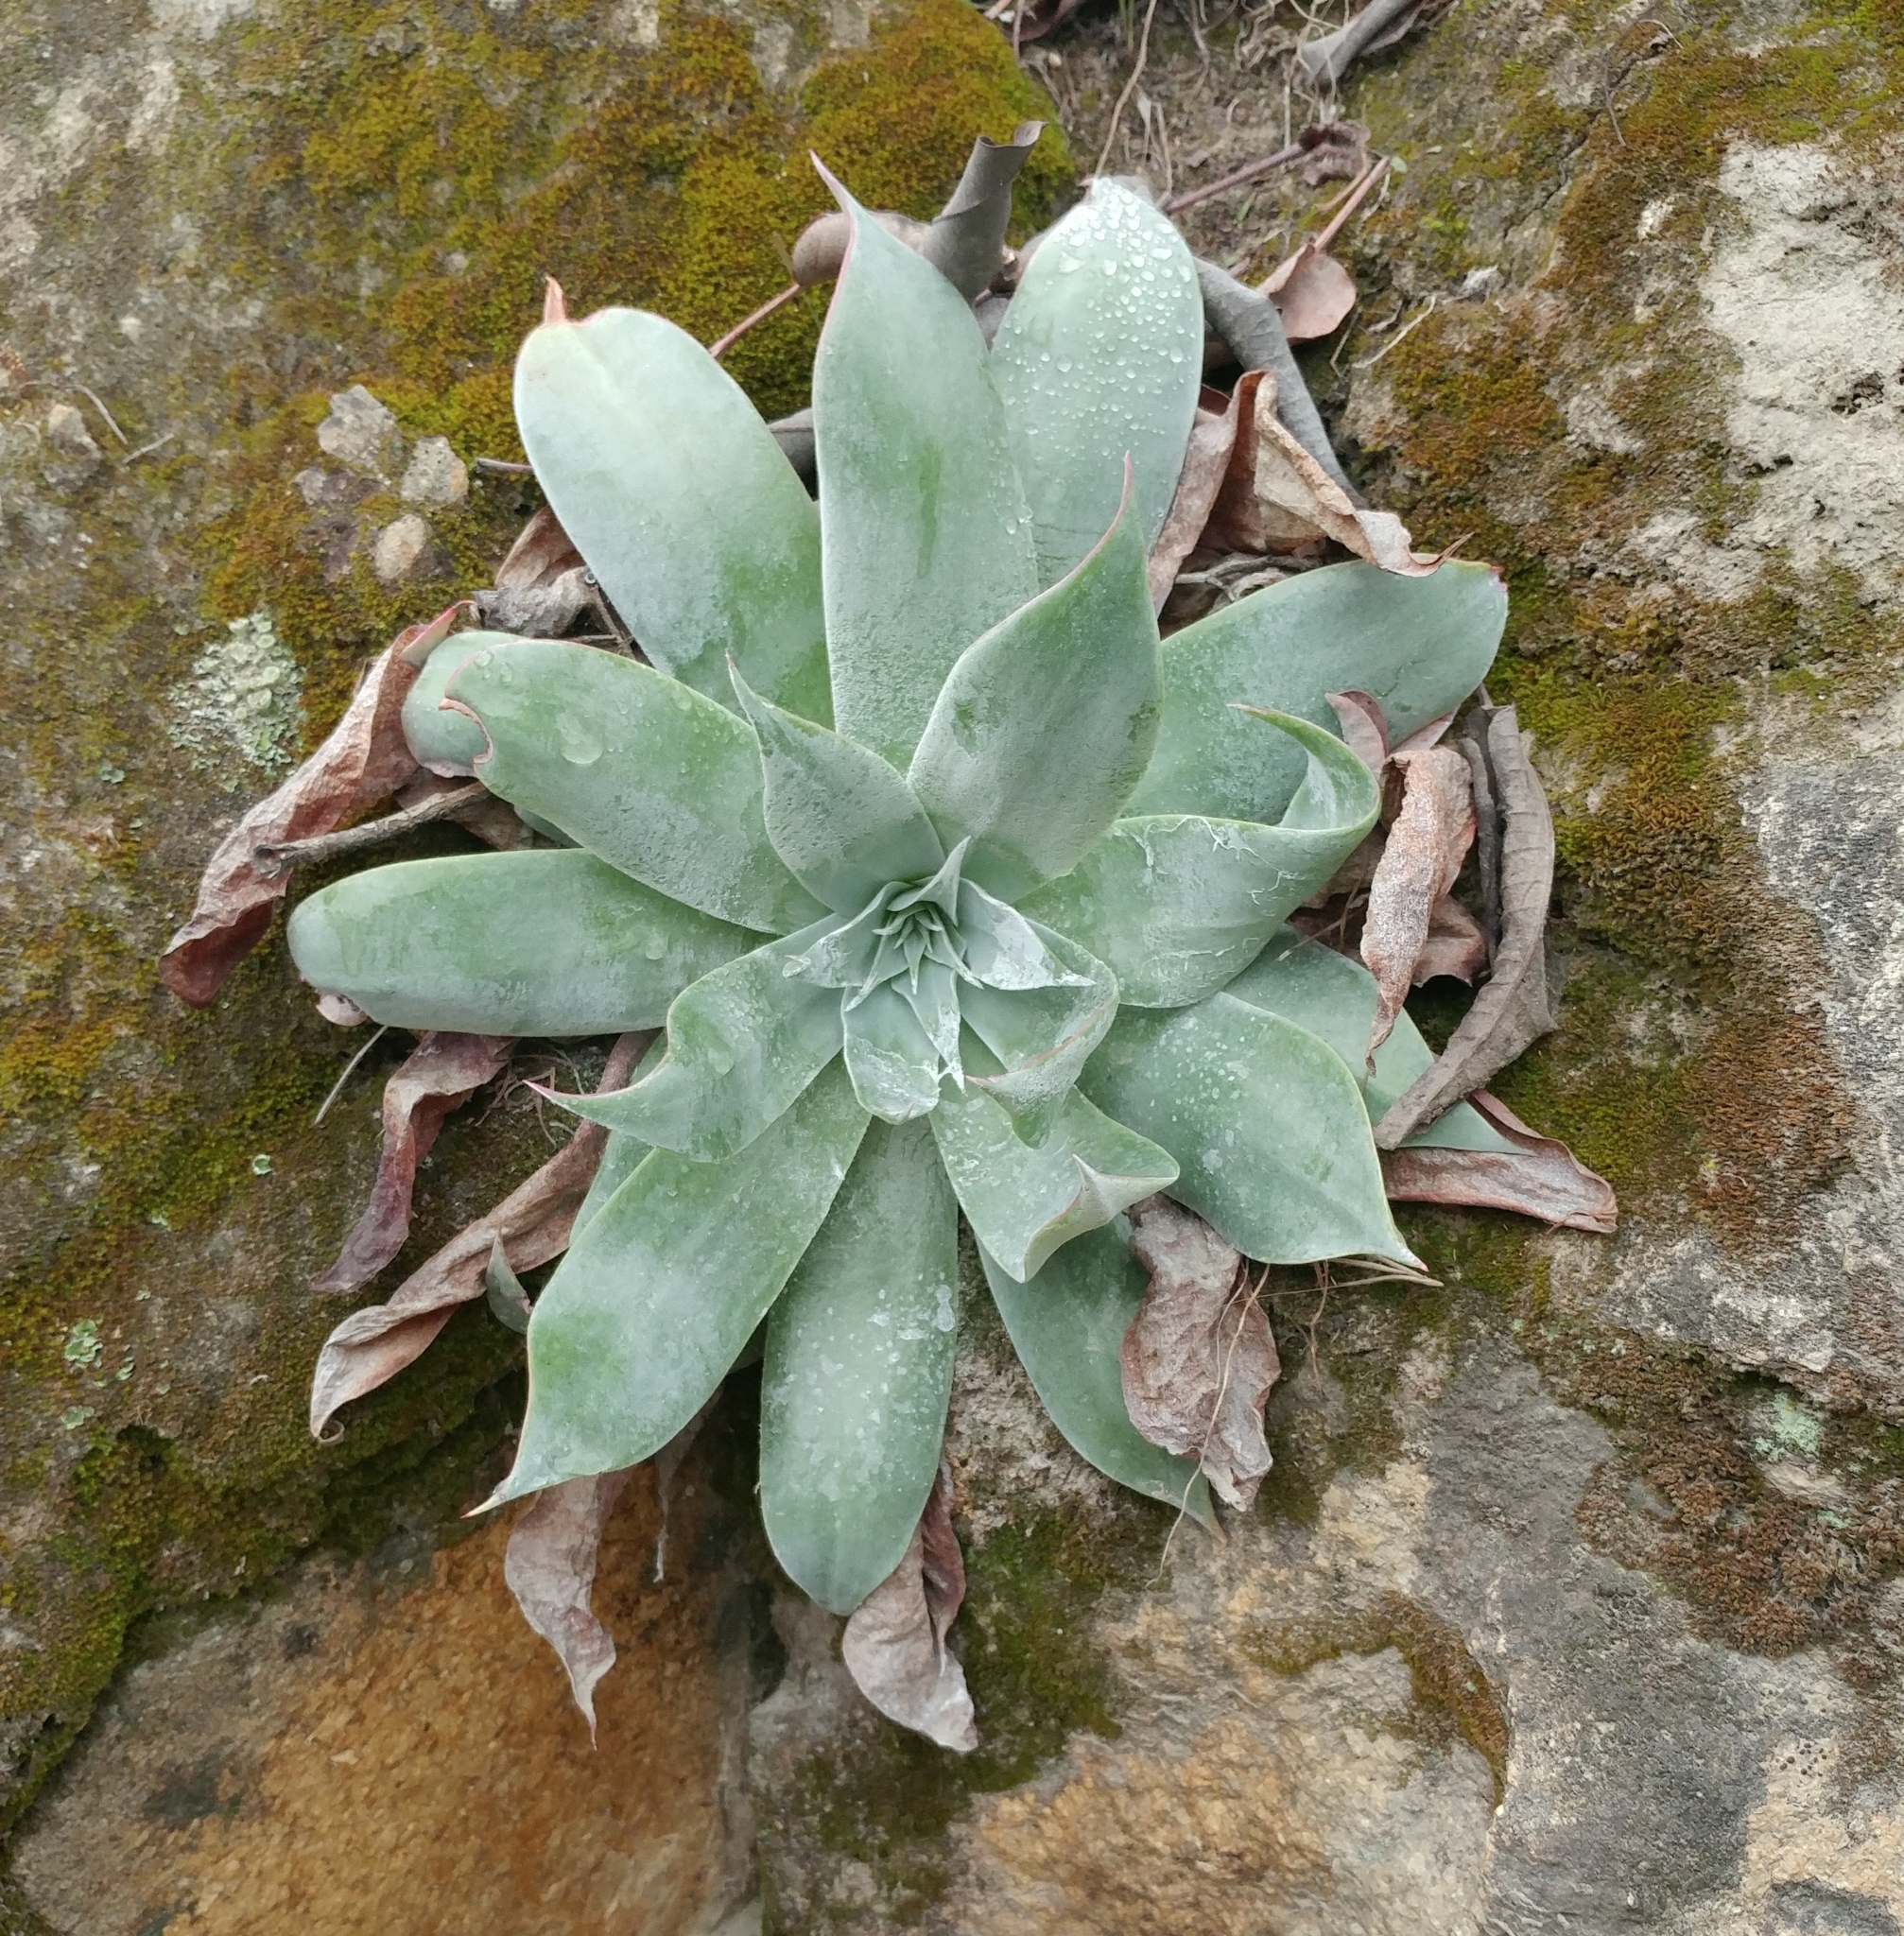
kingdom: Plantae
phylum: Tracheophyta
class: Magnoliopsida
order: Saxifragales
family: Crassulaceae
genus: Dudleya
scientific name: Dudleya pulverulenta
